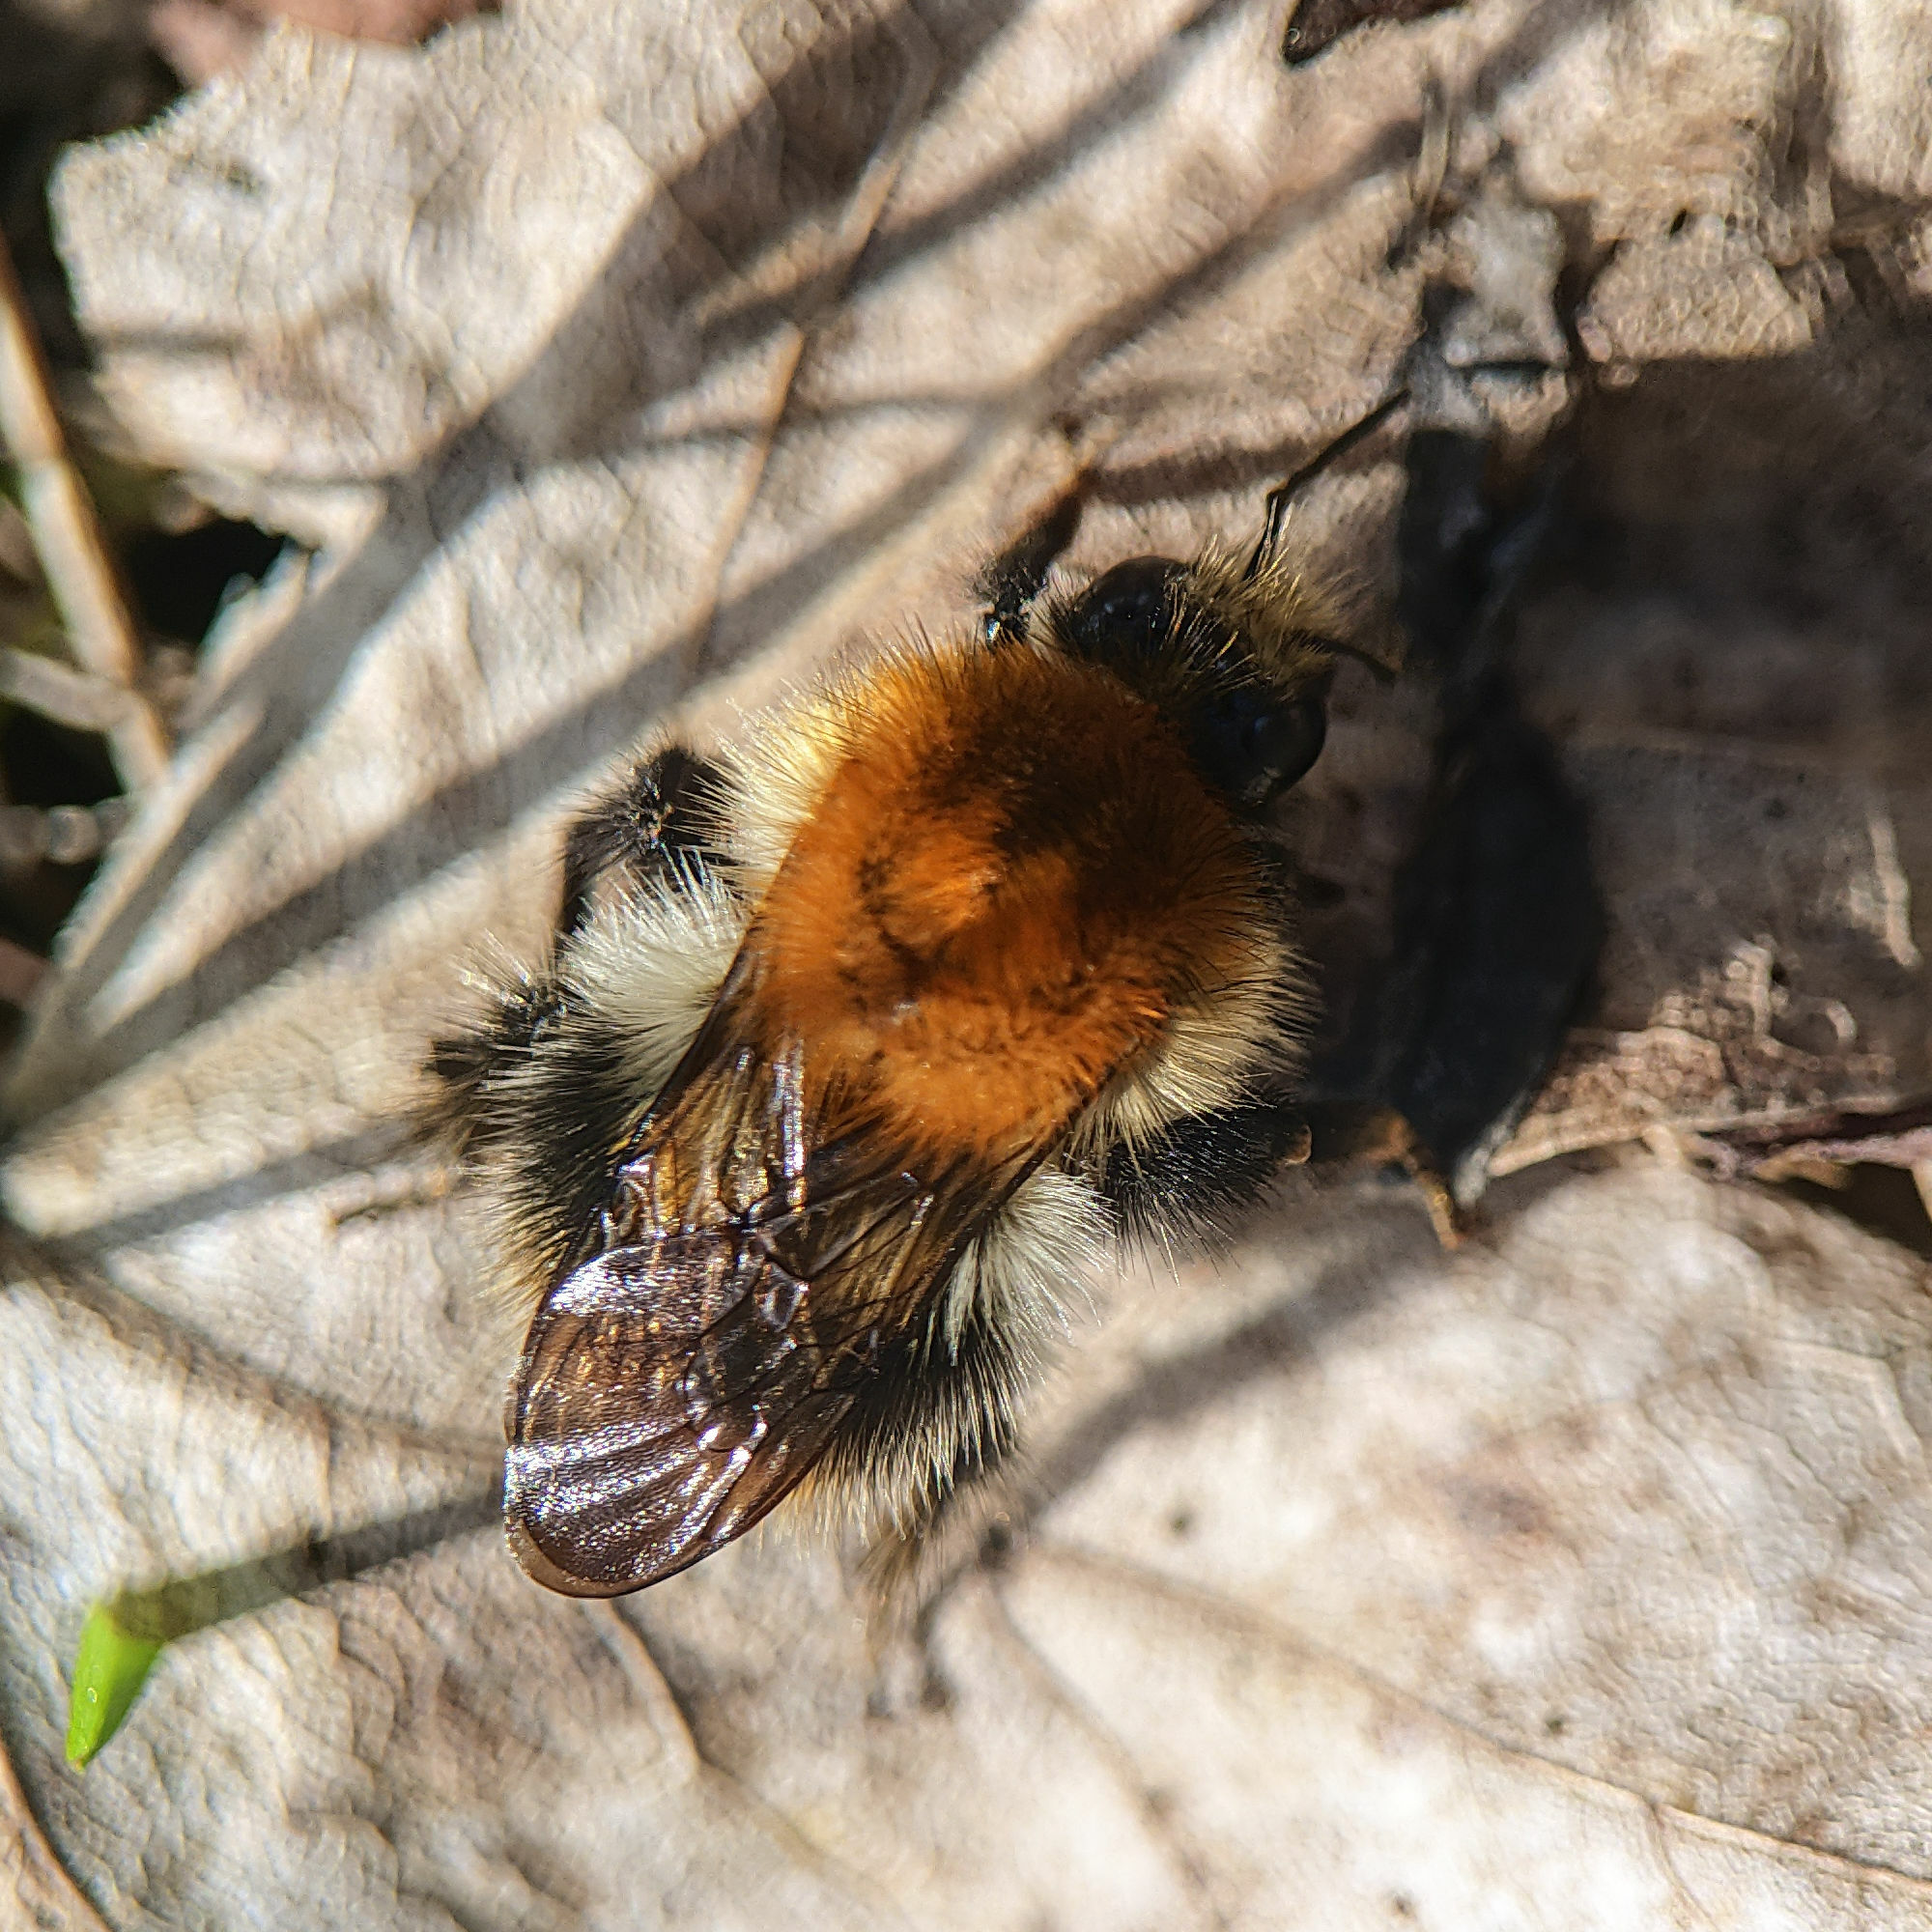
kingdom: Animalia
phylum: Arthropoda
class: Insecta
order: Hymenoptera
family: Apidae
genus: Bombus
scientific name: Bombus pascuorum
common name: Common carder bee
